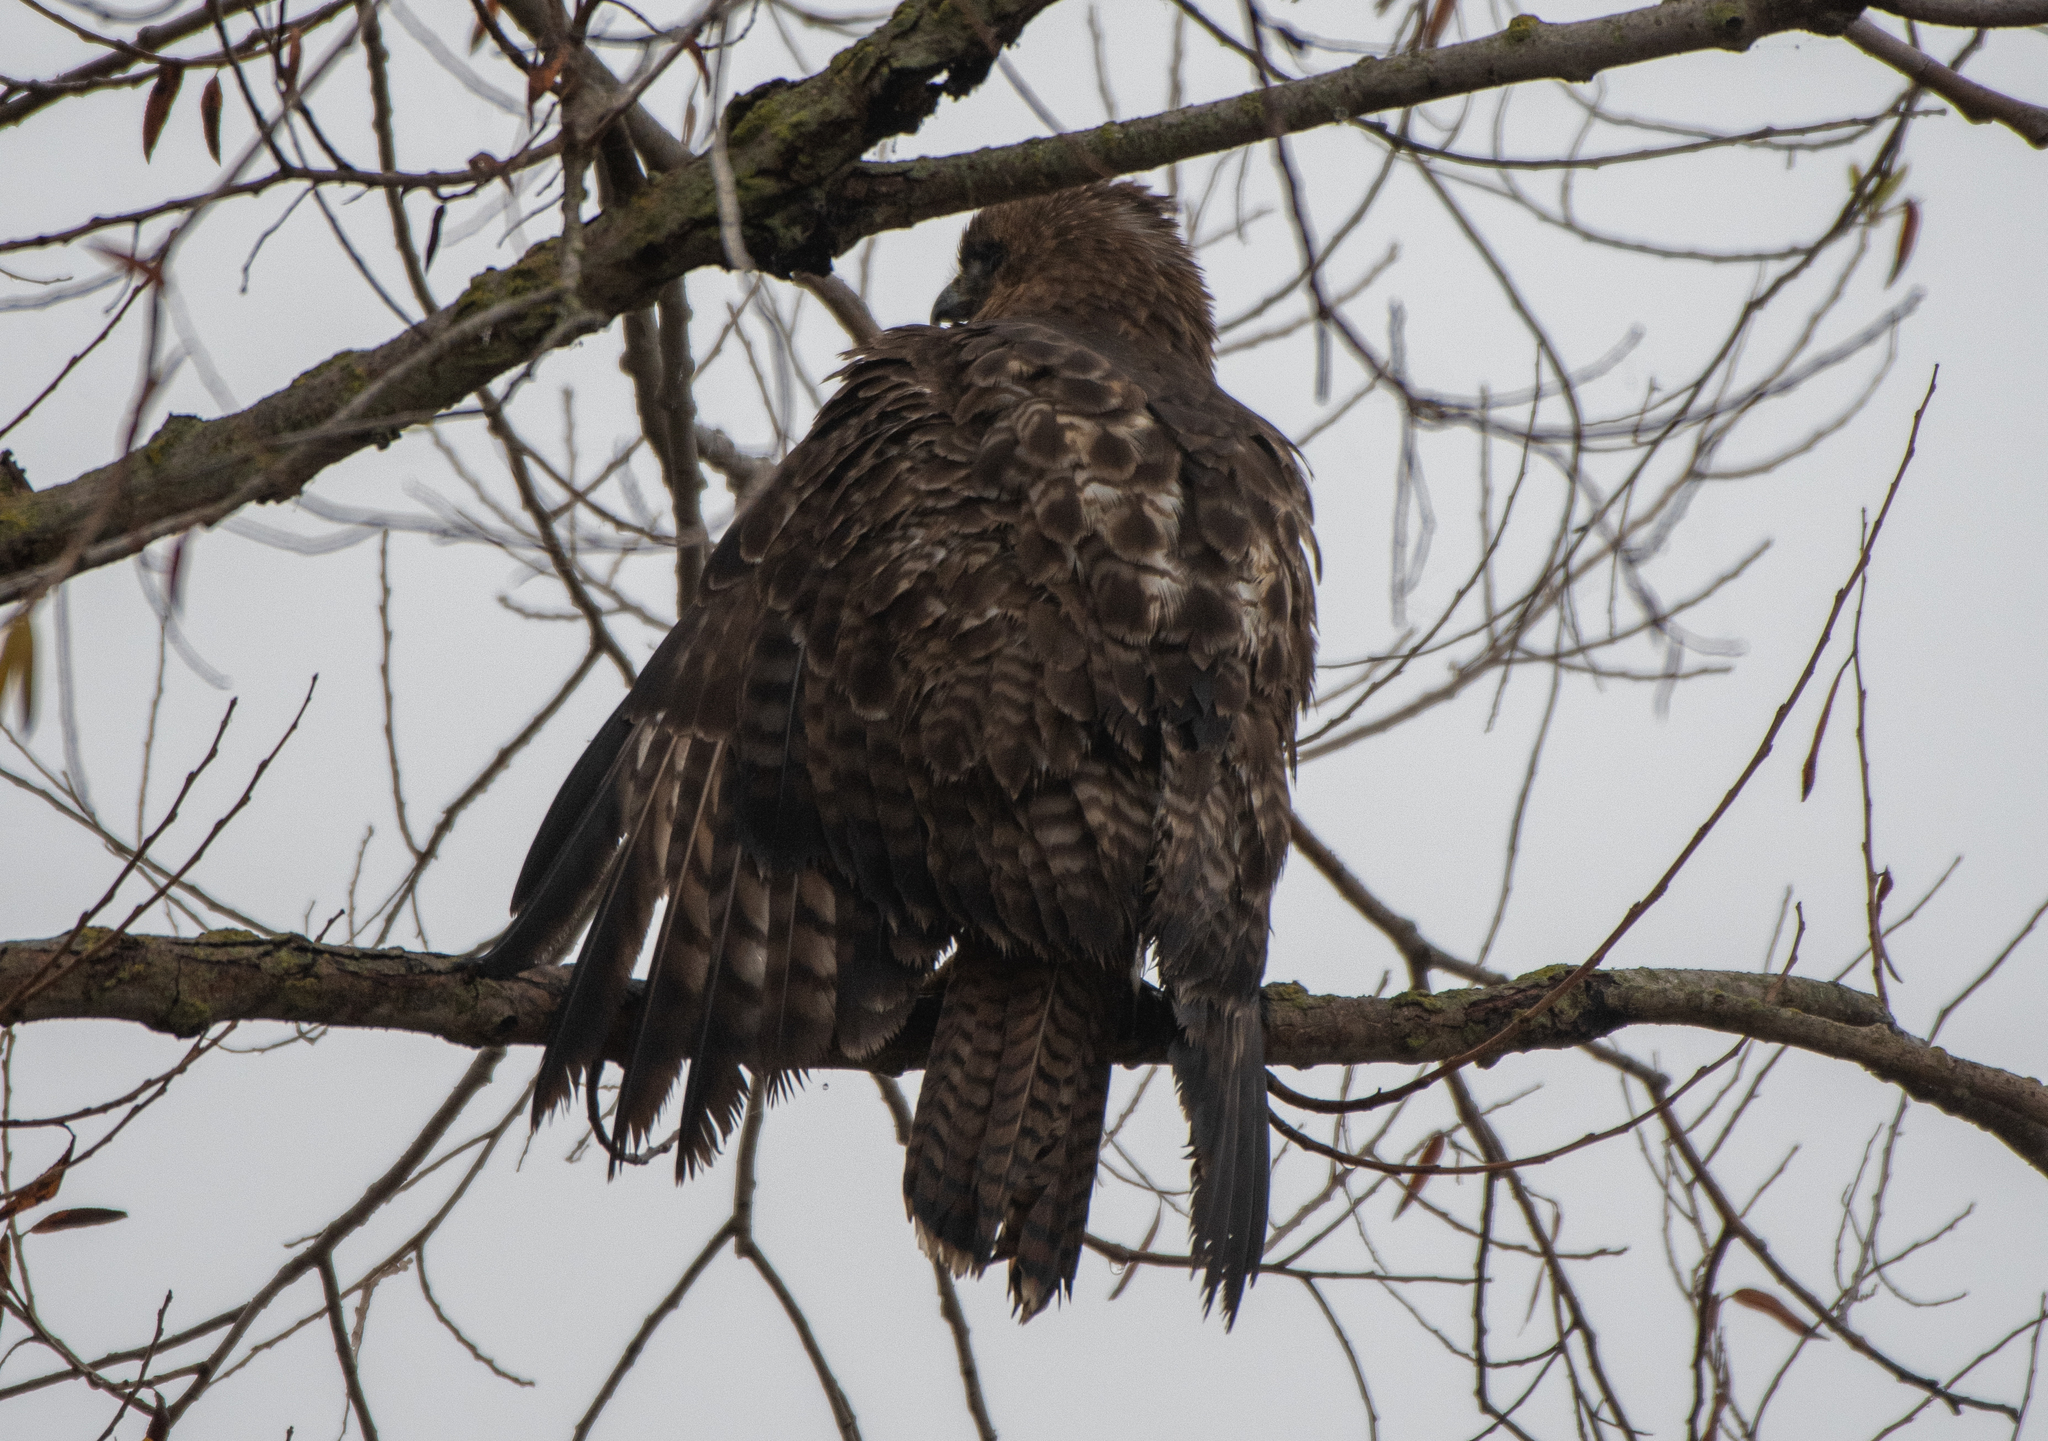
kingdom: Animalia
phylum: Chordata
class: Aves
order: Accipitriformes
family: Accipitridae
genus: Buteo
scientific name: Buteo jamaicensis
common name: Red-tailed hawk
